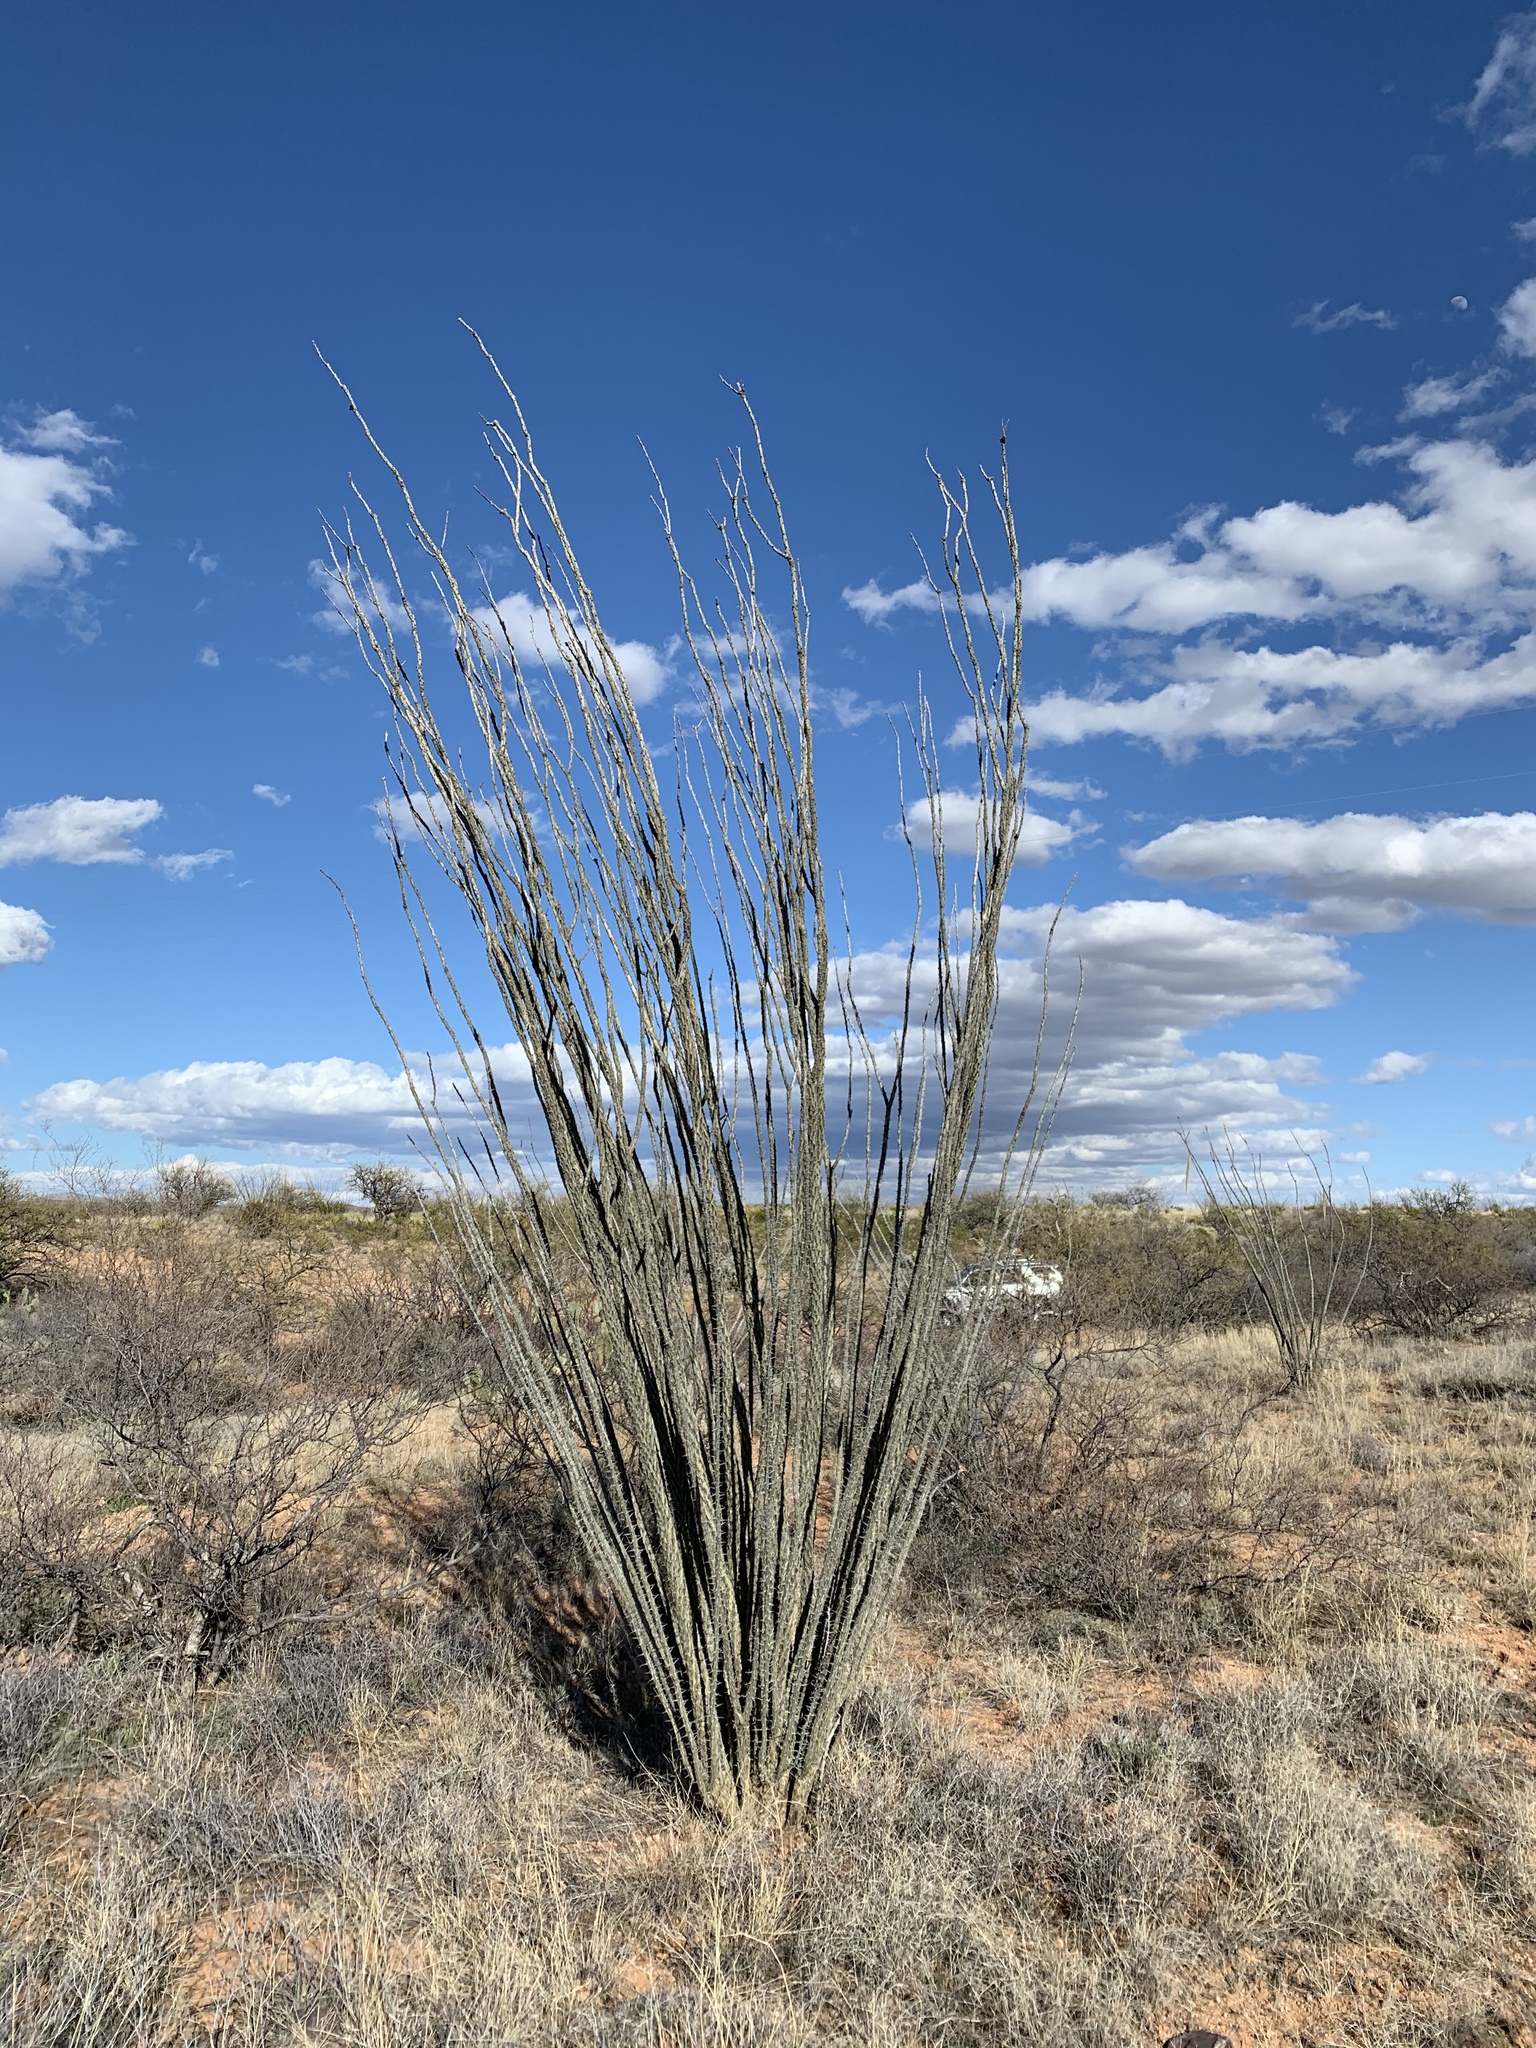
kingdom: Plantae
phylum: Tracheophyta
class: Magnoliopsida
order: Ericales
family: Fouquieriaceae
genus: Fouquieria
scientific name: Fouquieria splendens
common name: Vine-cactus
